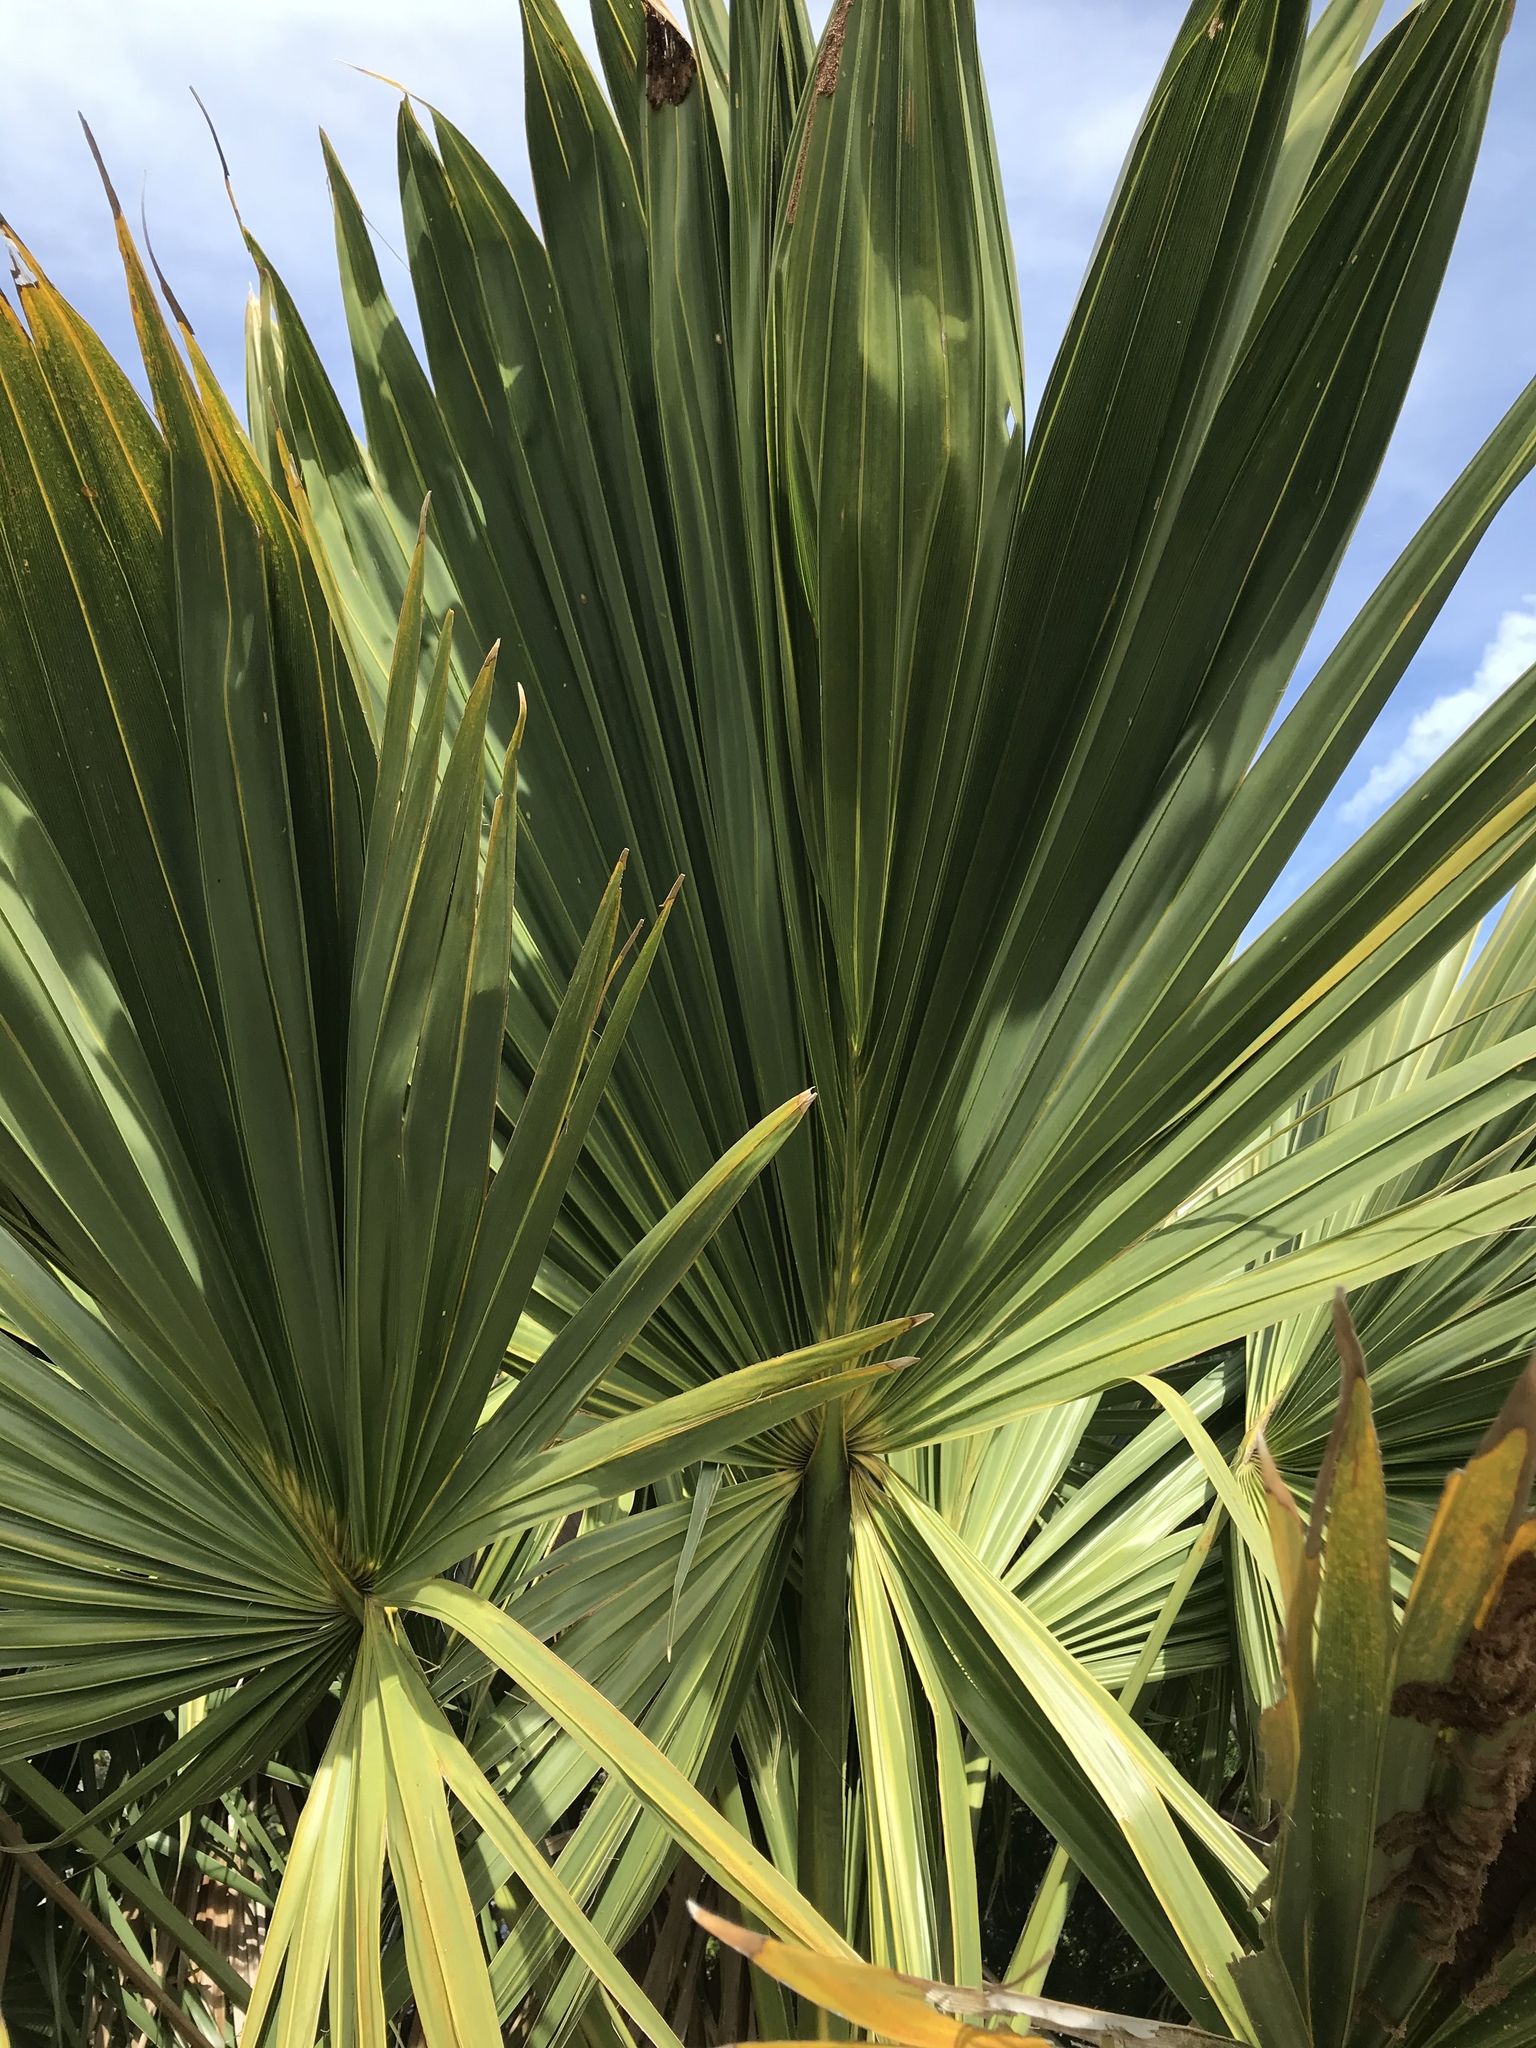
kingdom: Plantae
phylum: Tracheophyta
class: Liliopsida
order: Arecales
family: Arecaceae
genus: Sabal
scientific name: Sabal palmetto
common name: Blue palmetto
